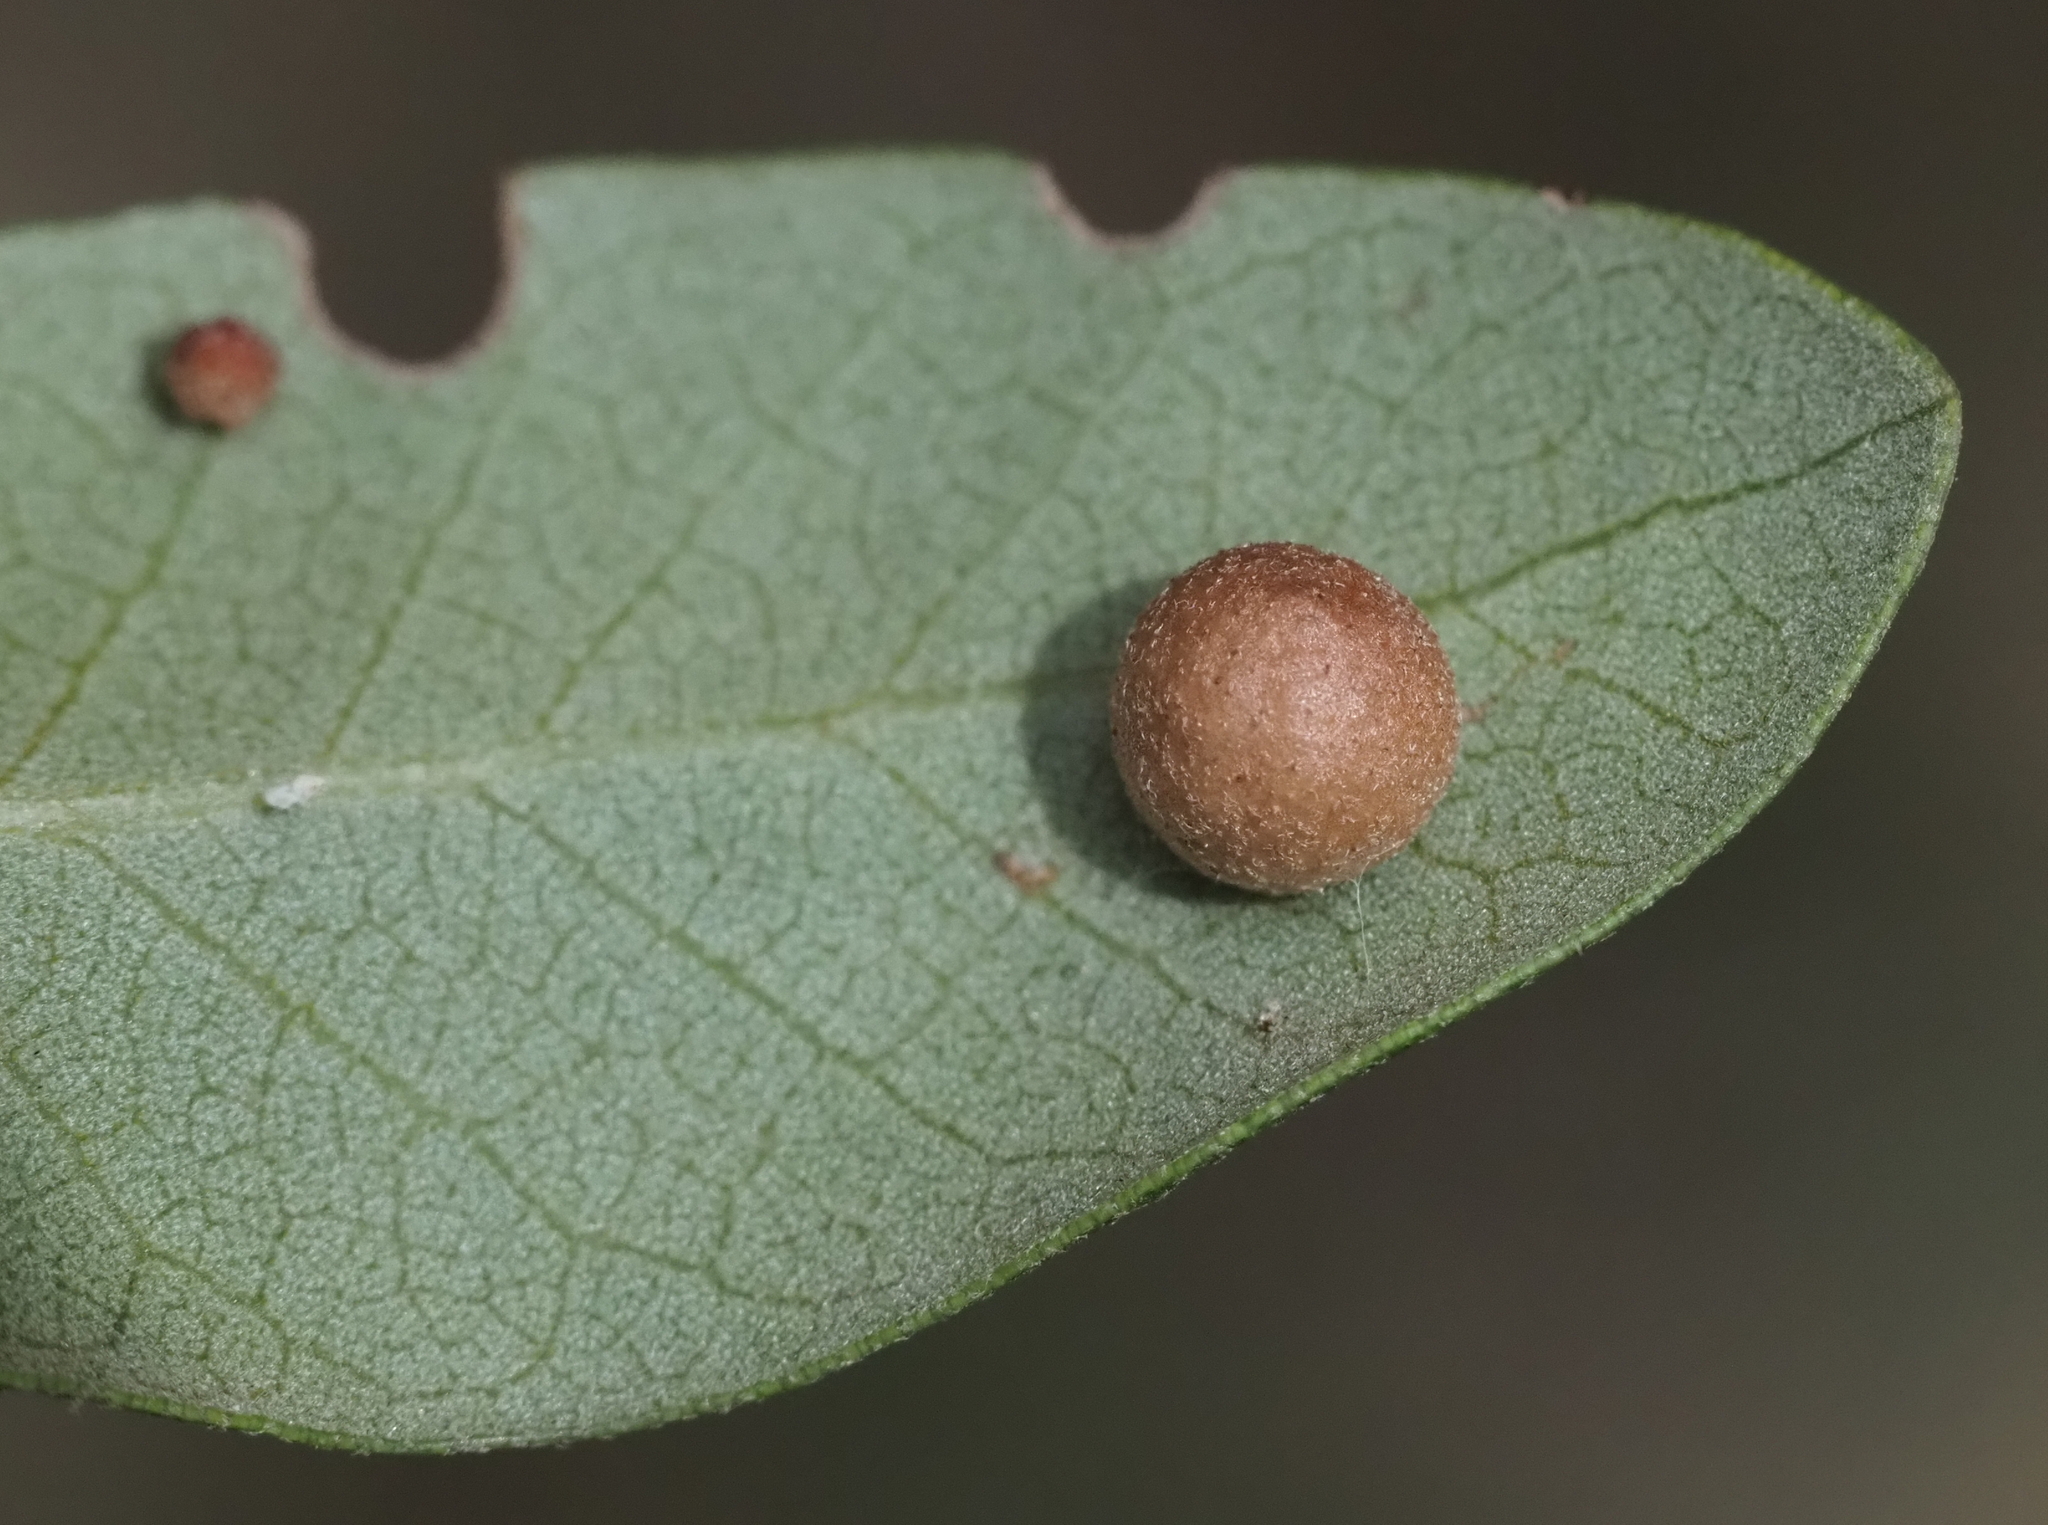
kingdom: Animalia
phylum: Arthropoda
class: Insecta
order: Hymenoptera
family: Cynipidae
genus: Belonocnema
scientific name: Belonocnema kinseyi
